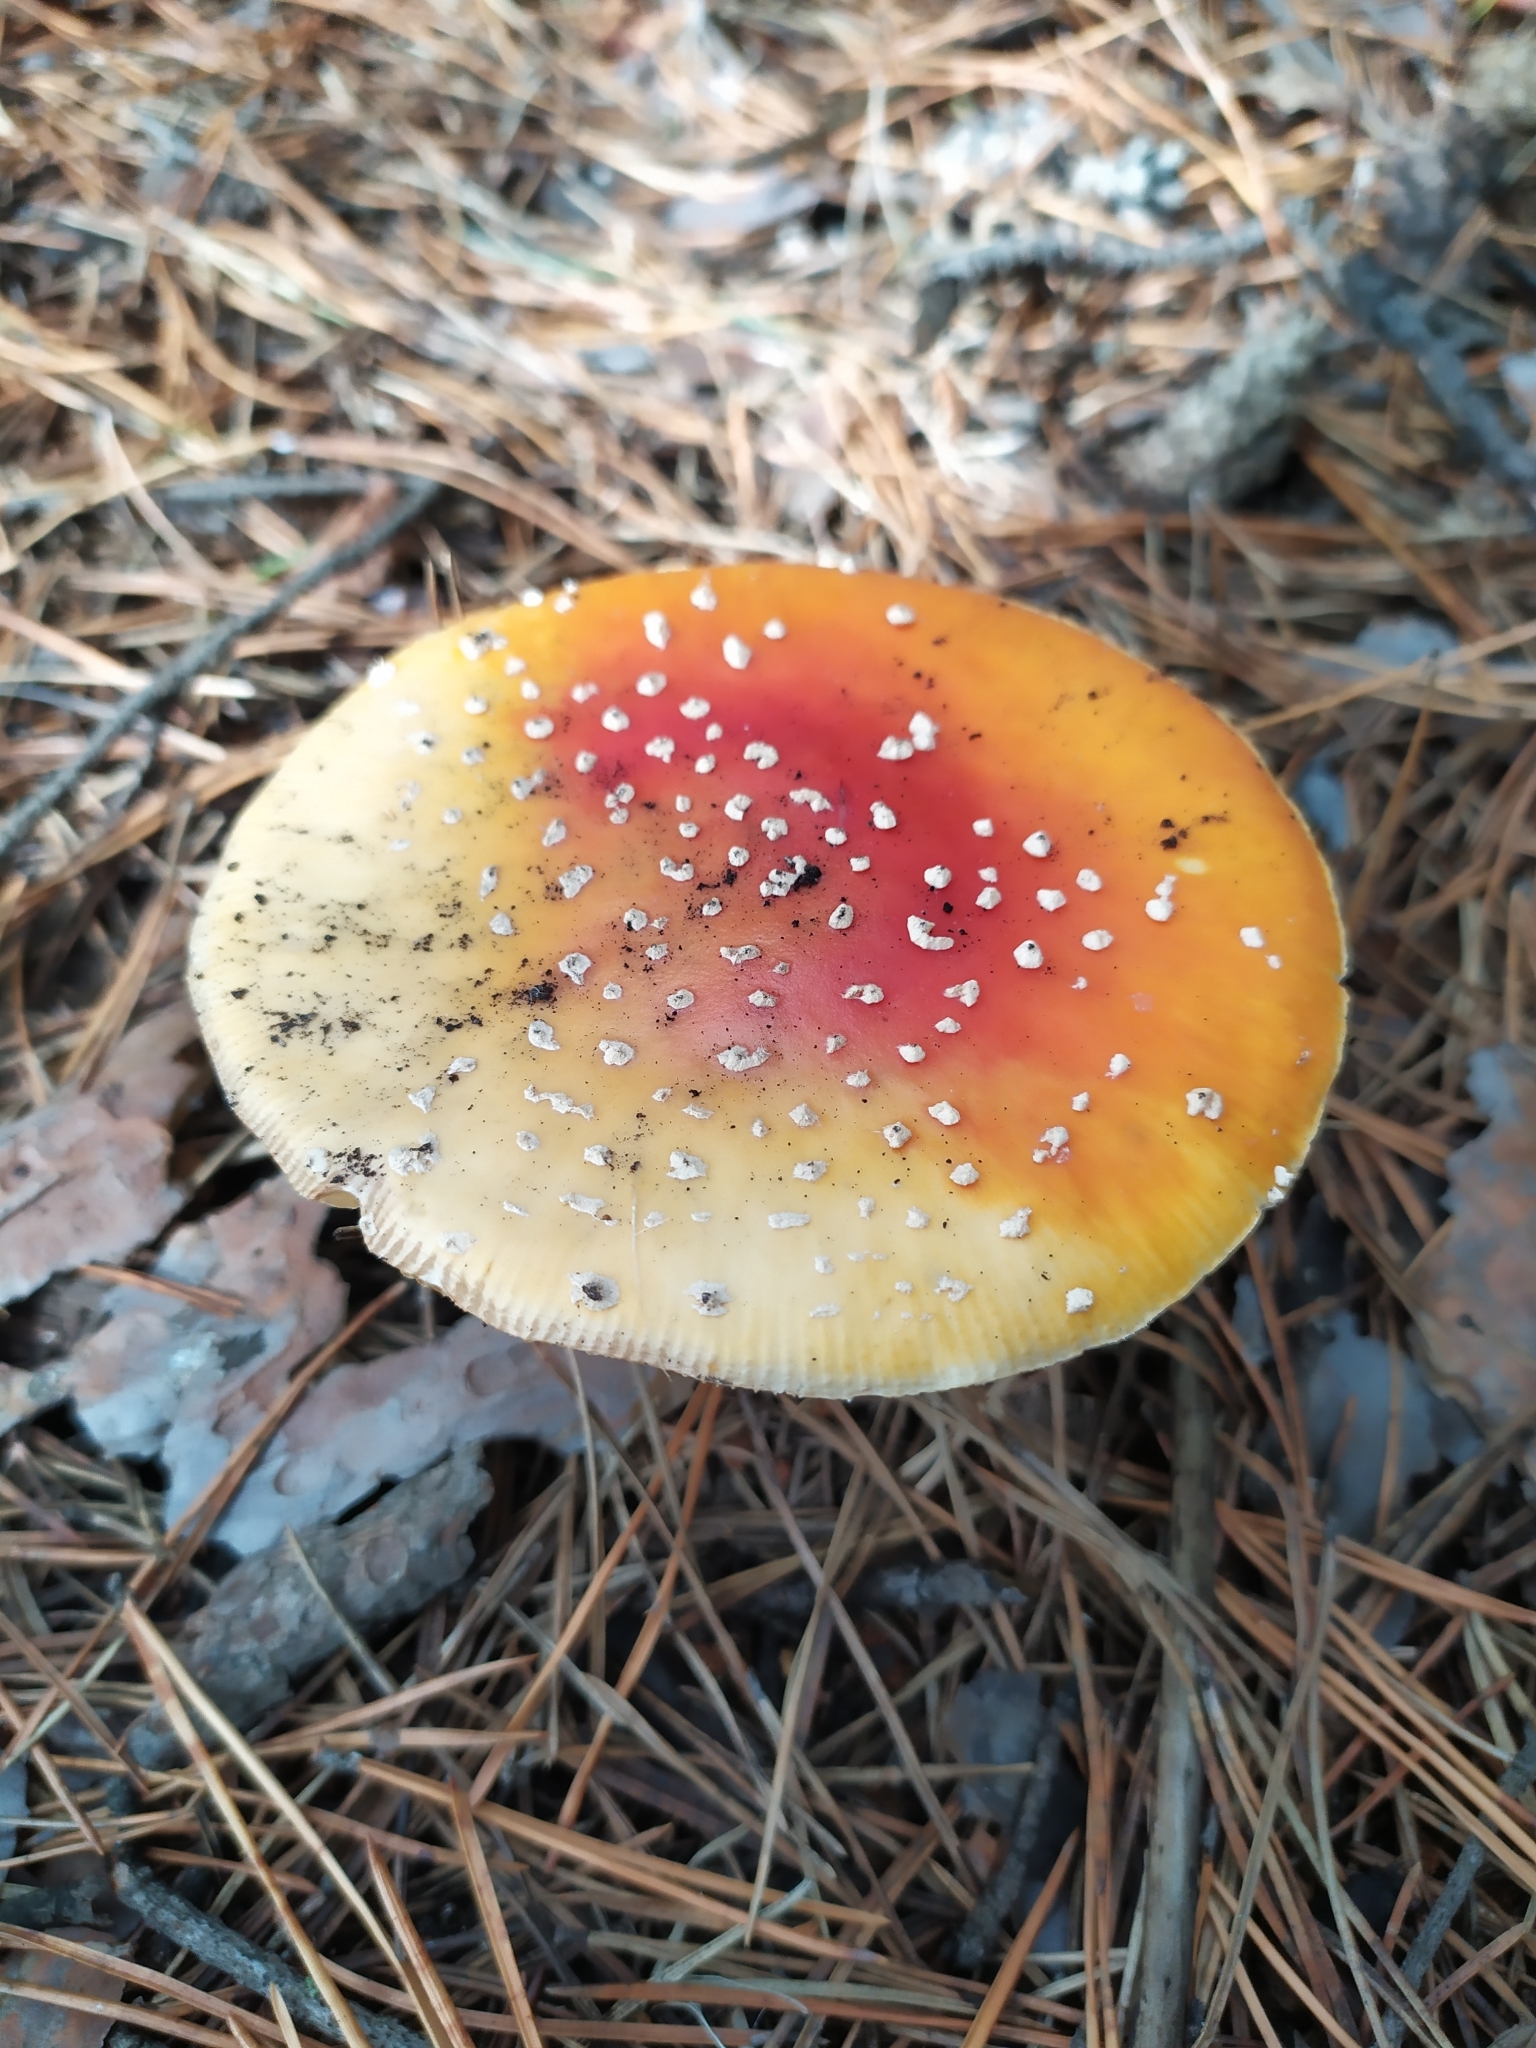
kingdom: Fungi
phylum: Basidiomycota
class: Agaricomycetes
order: Agaricales
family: Amanitaceae
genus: Amanita
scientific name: Amanita muscaria
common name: Fly agaric
